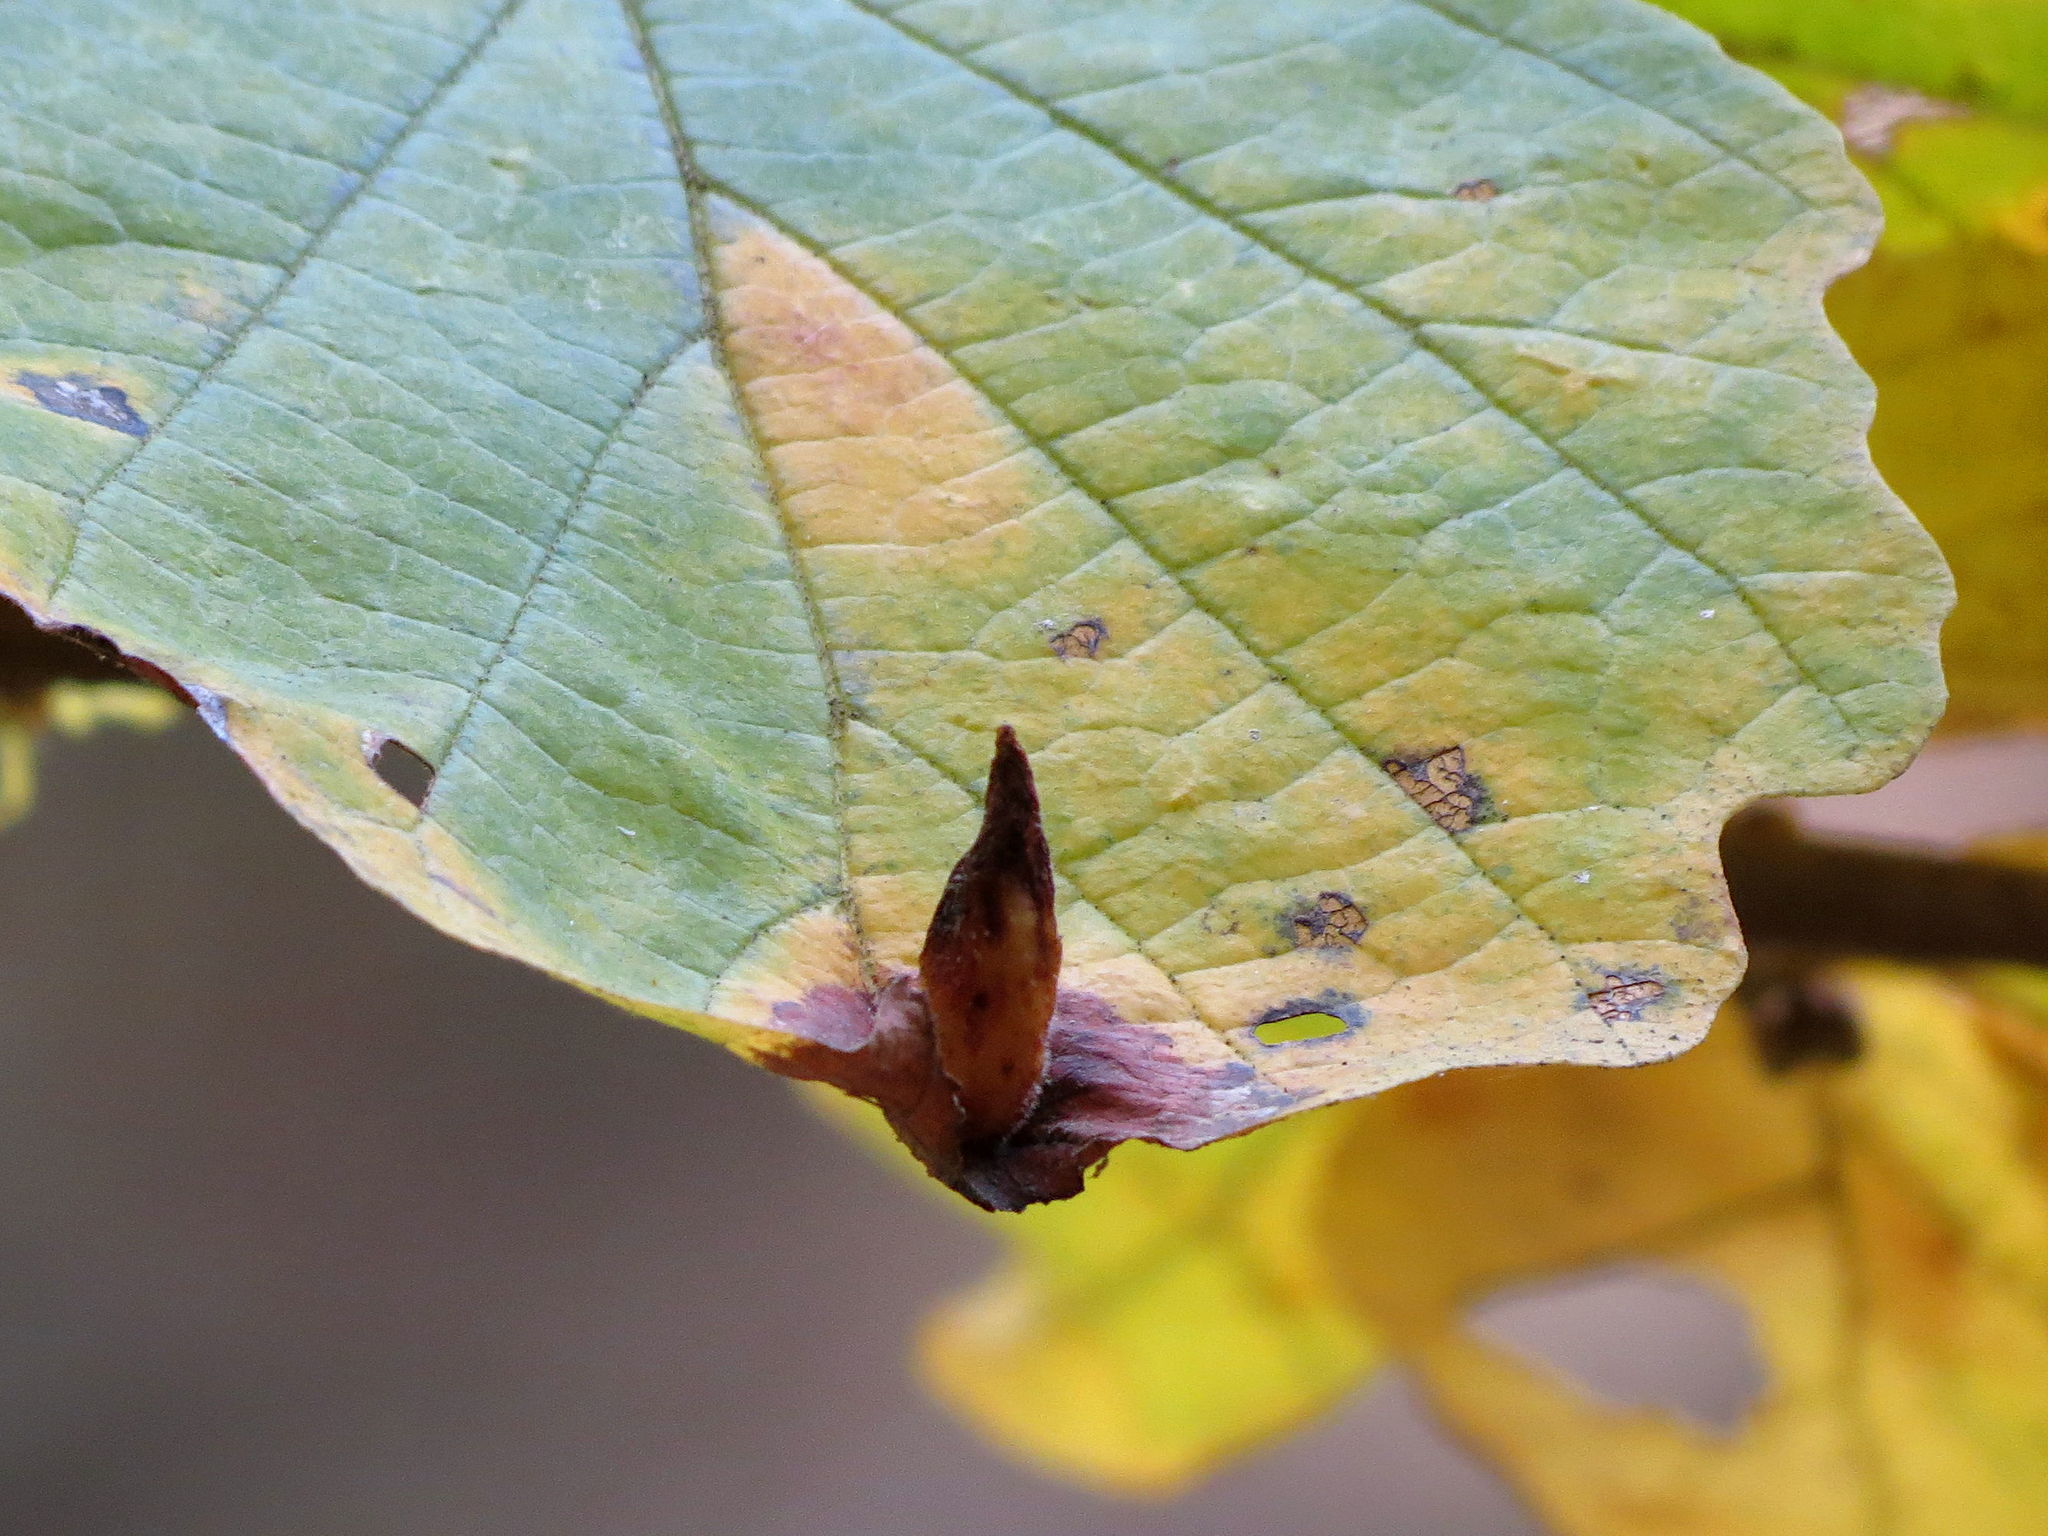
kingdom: Animalia
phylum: Arthropoda
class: Insecta
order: Hemiptera
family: Aphididae
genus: Hormaphis
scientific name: Hormaphis hamamelidis
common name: Witch-hazel cone gall aphid
